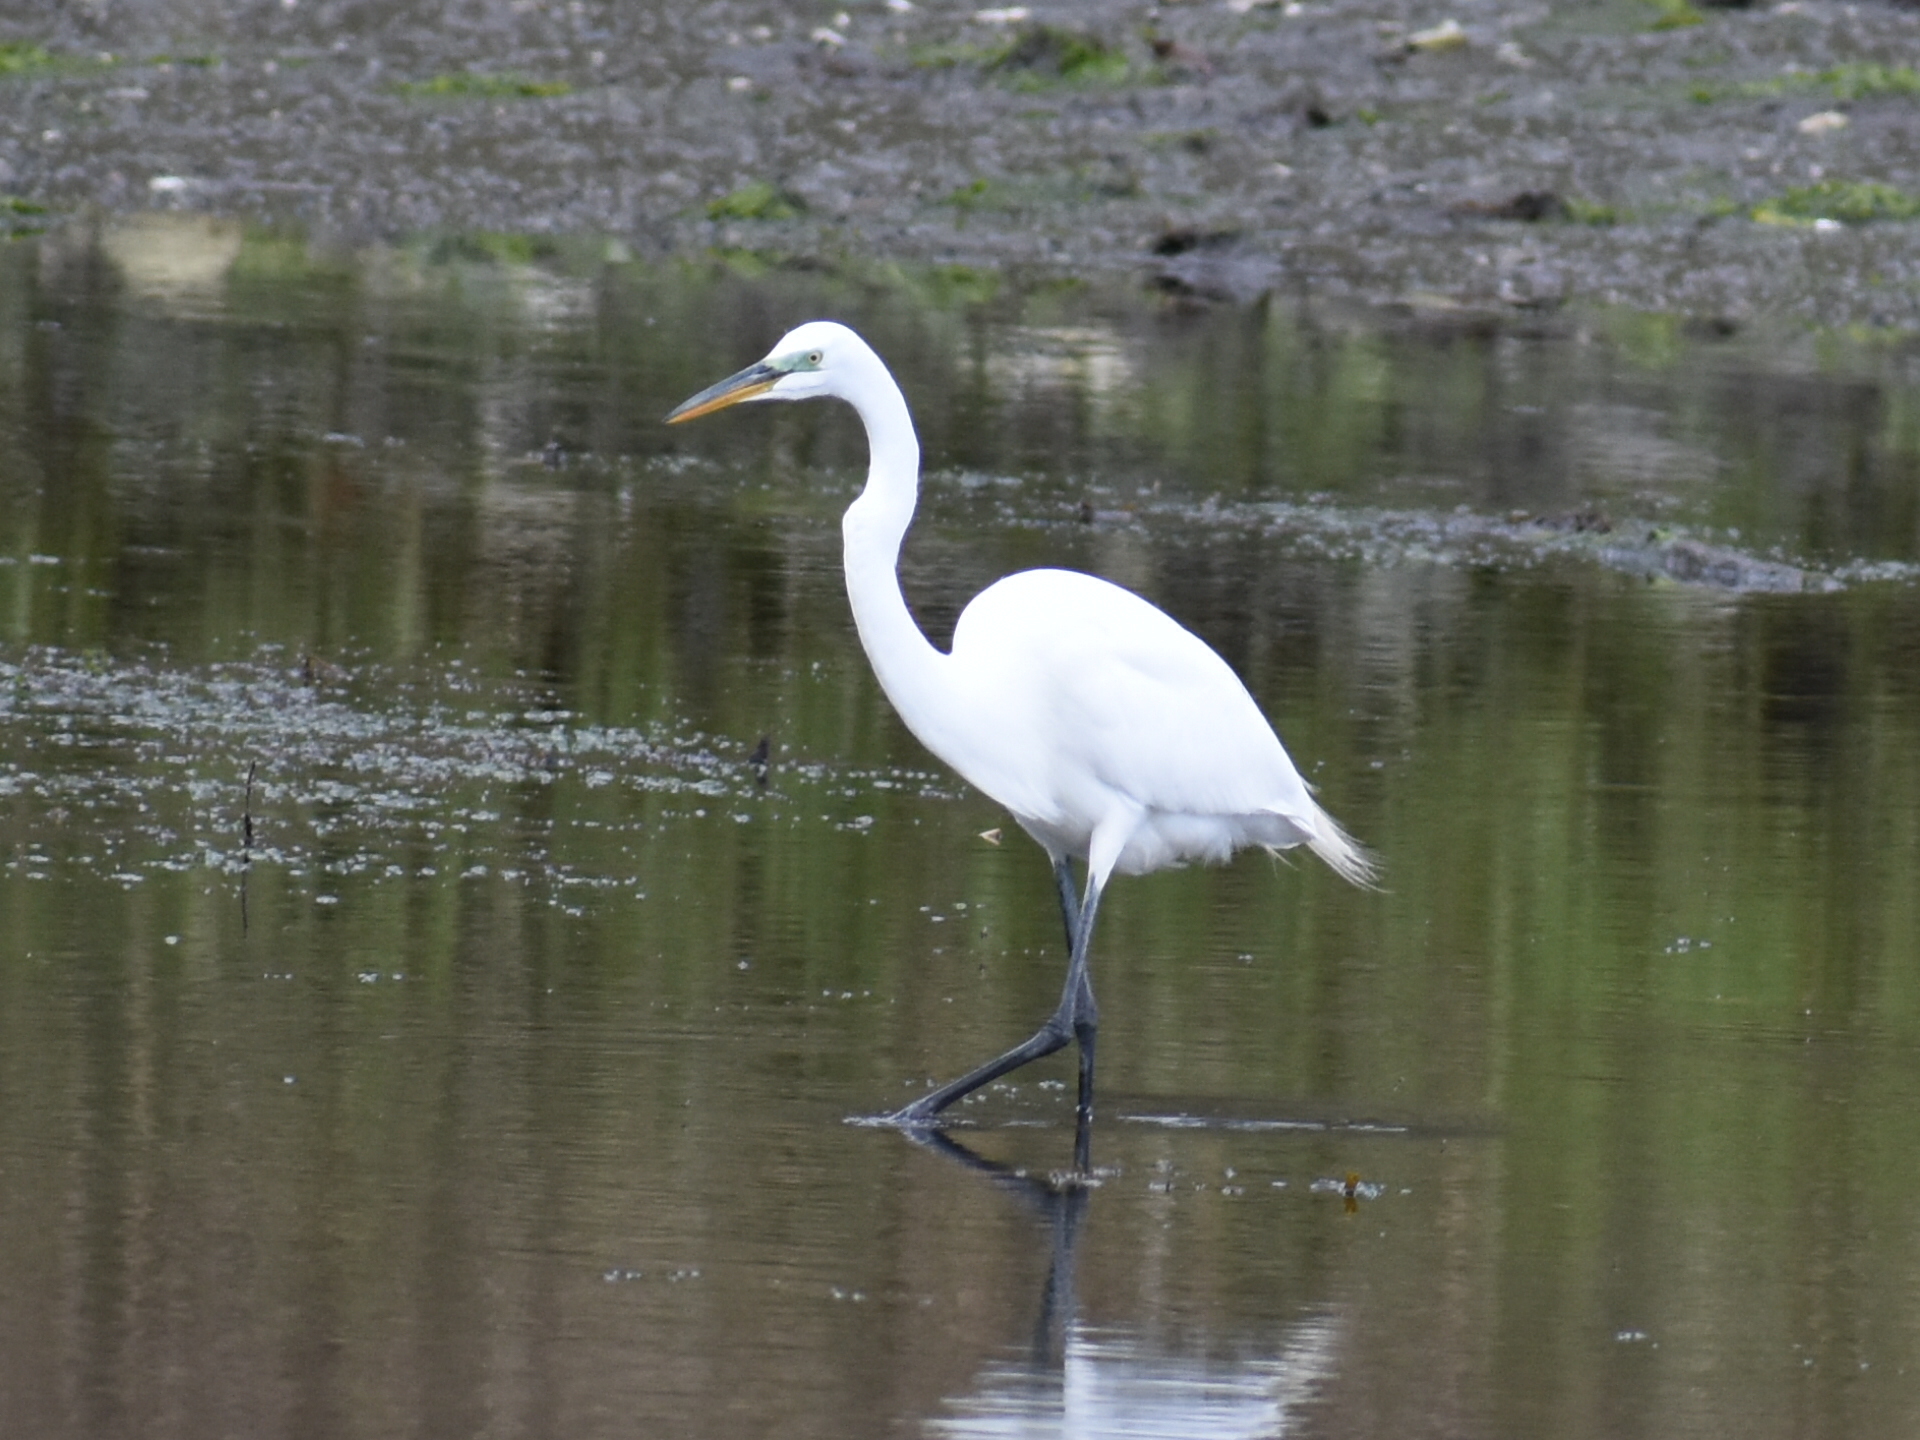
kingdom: Animalia
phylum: Chordata
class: Aves
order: Pelecaniformes
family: Ardeidae
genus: Ardea
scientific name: Ardea alba
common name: Great egret
